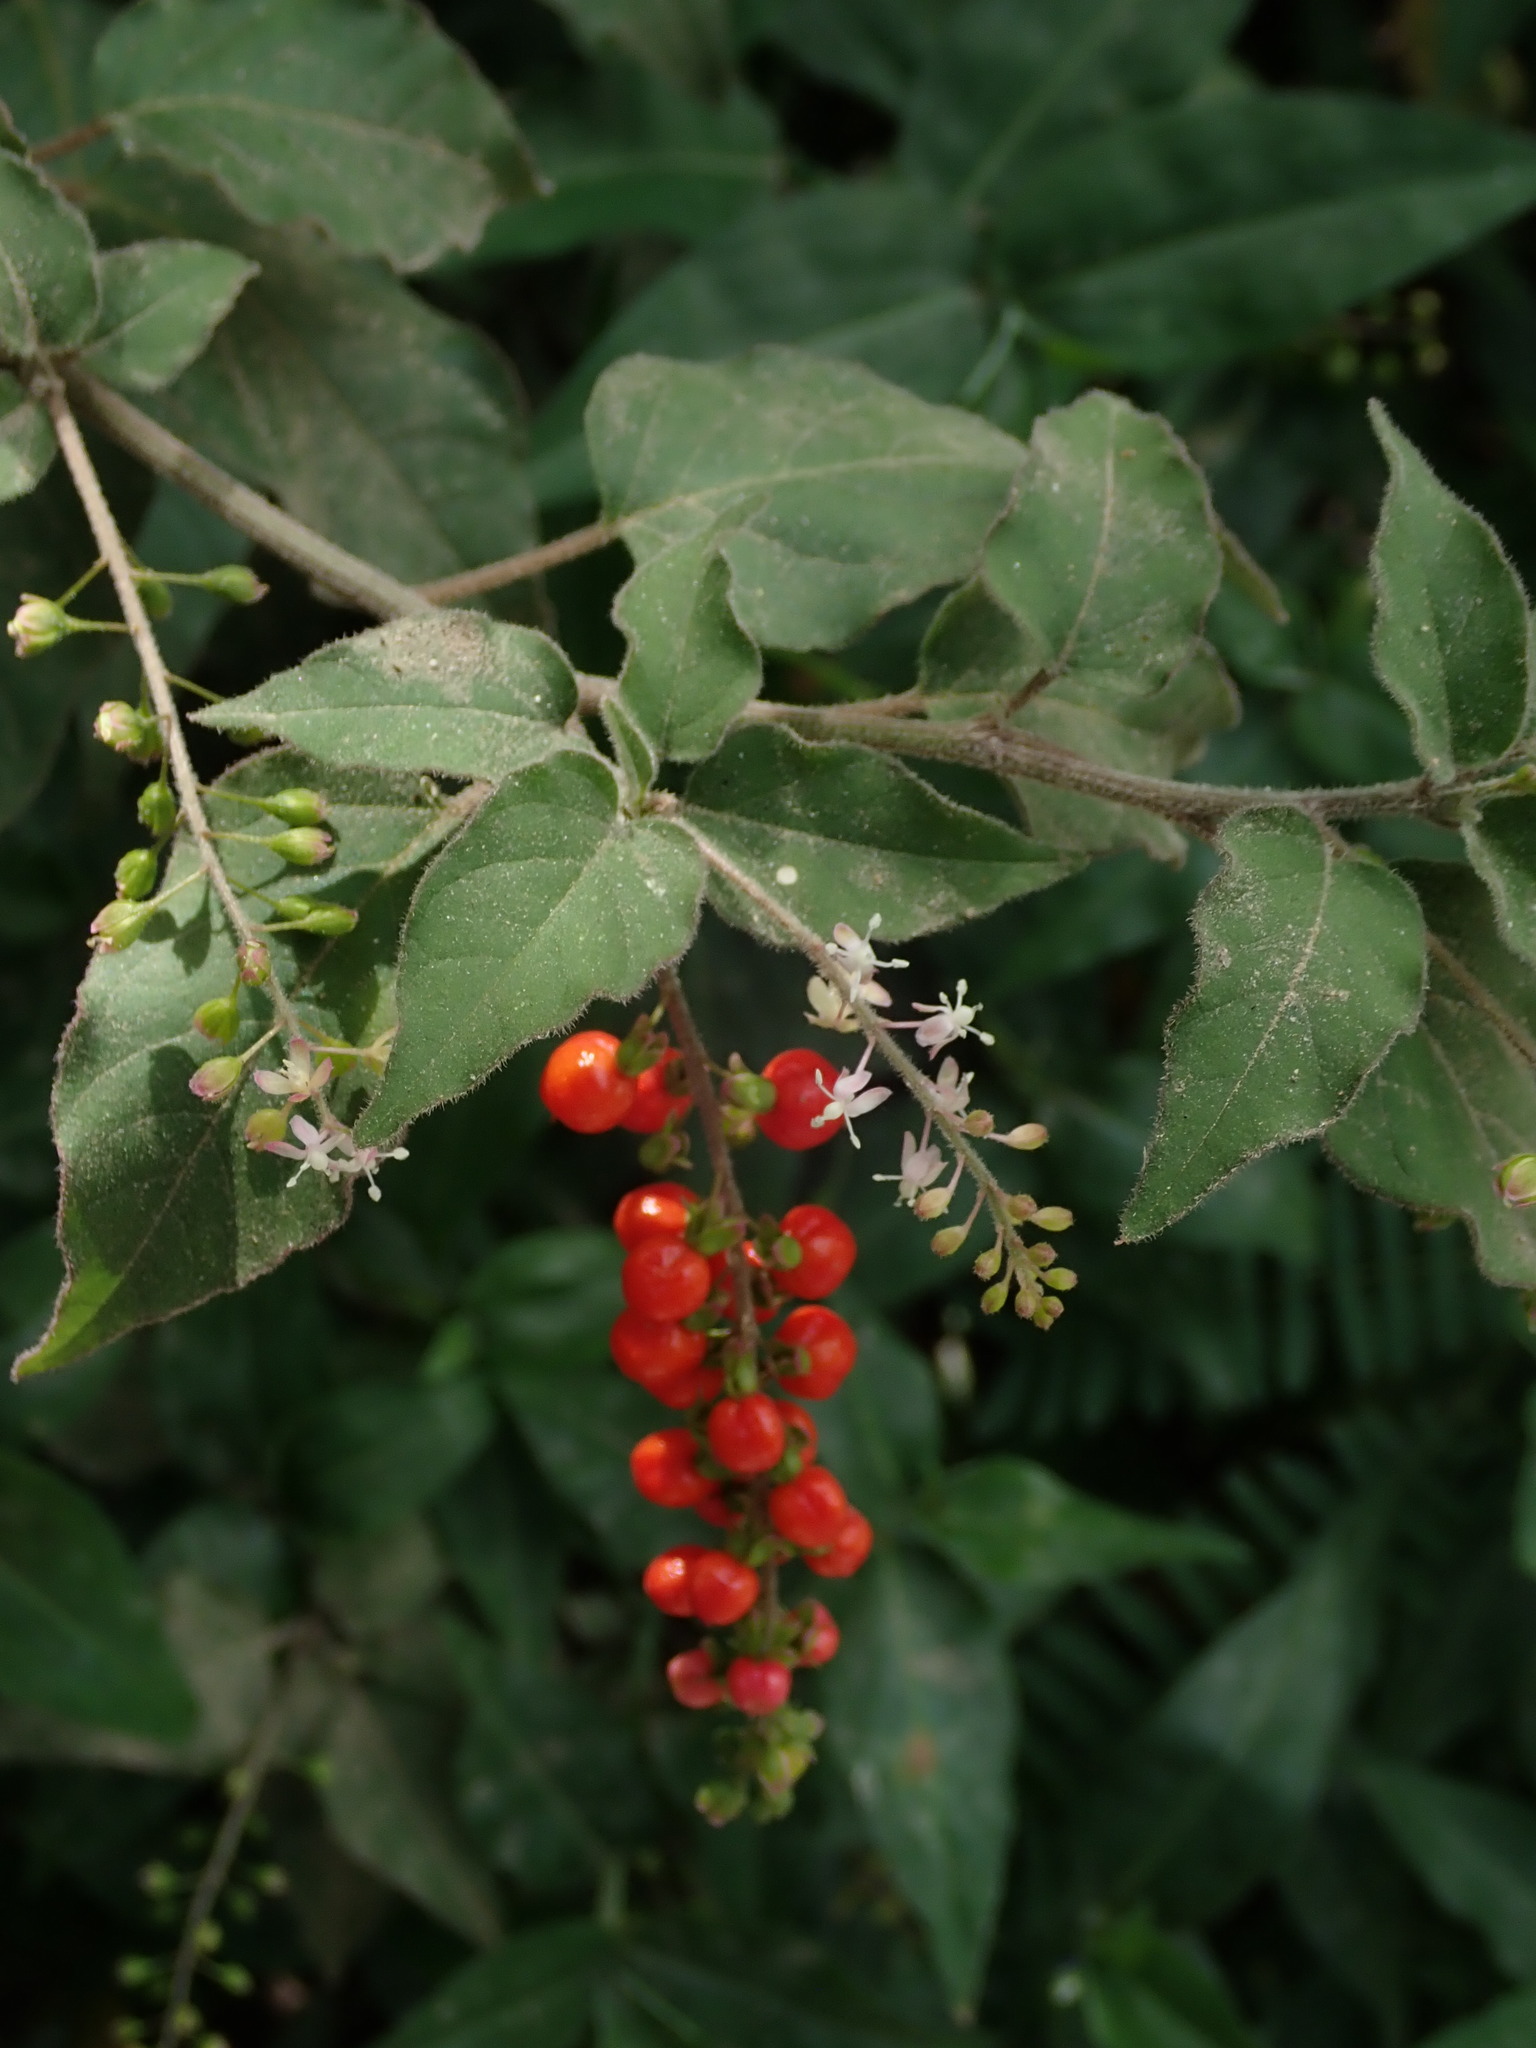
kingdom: Plantae
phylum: Tracheophyta
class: Magnoliopsida
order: Caryophyllales
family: Phytolaccaceae
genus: Rivina
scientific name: Rivina humilis
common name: Rougeplant
